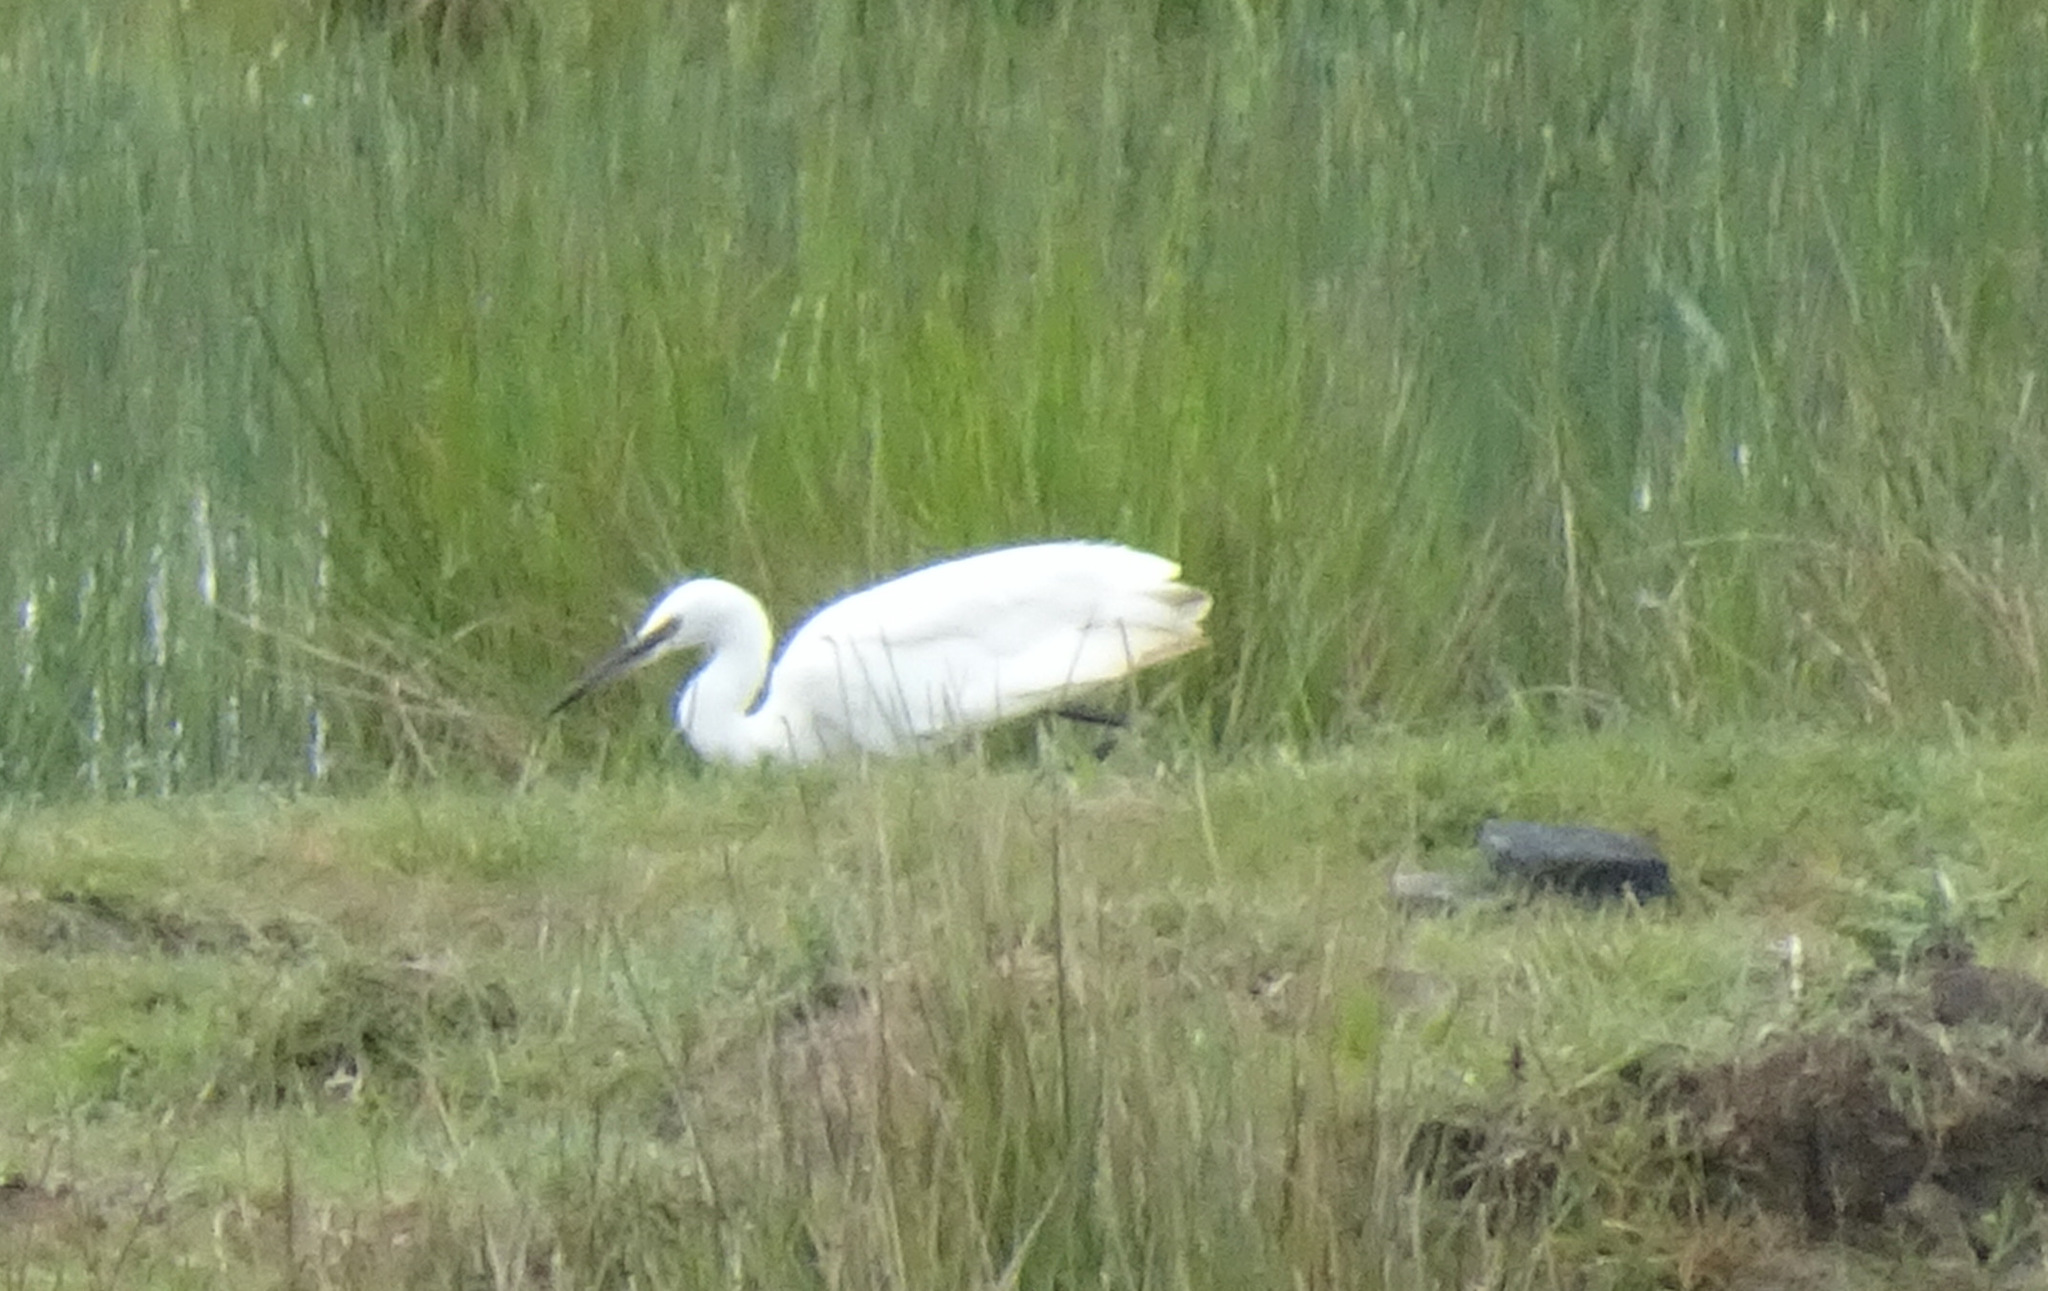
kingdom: Animalia
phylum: Chordata
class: Aves
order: Pelecaniformes
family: Ardeidae
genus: Egretta
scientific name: Egretta garzetta
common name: Little egret
